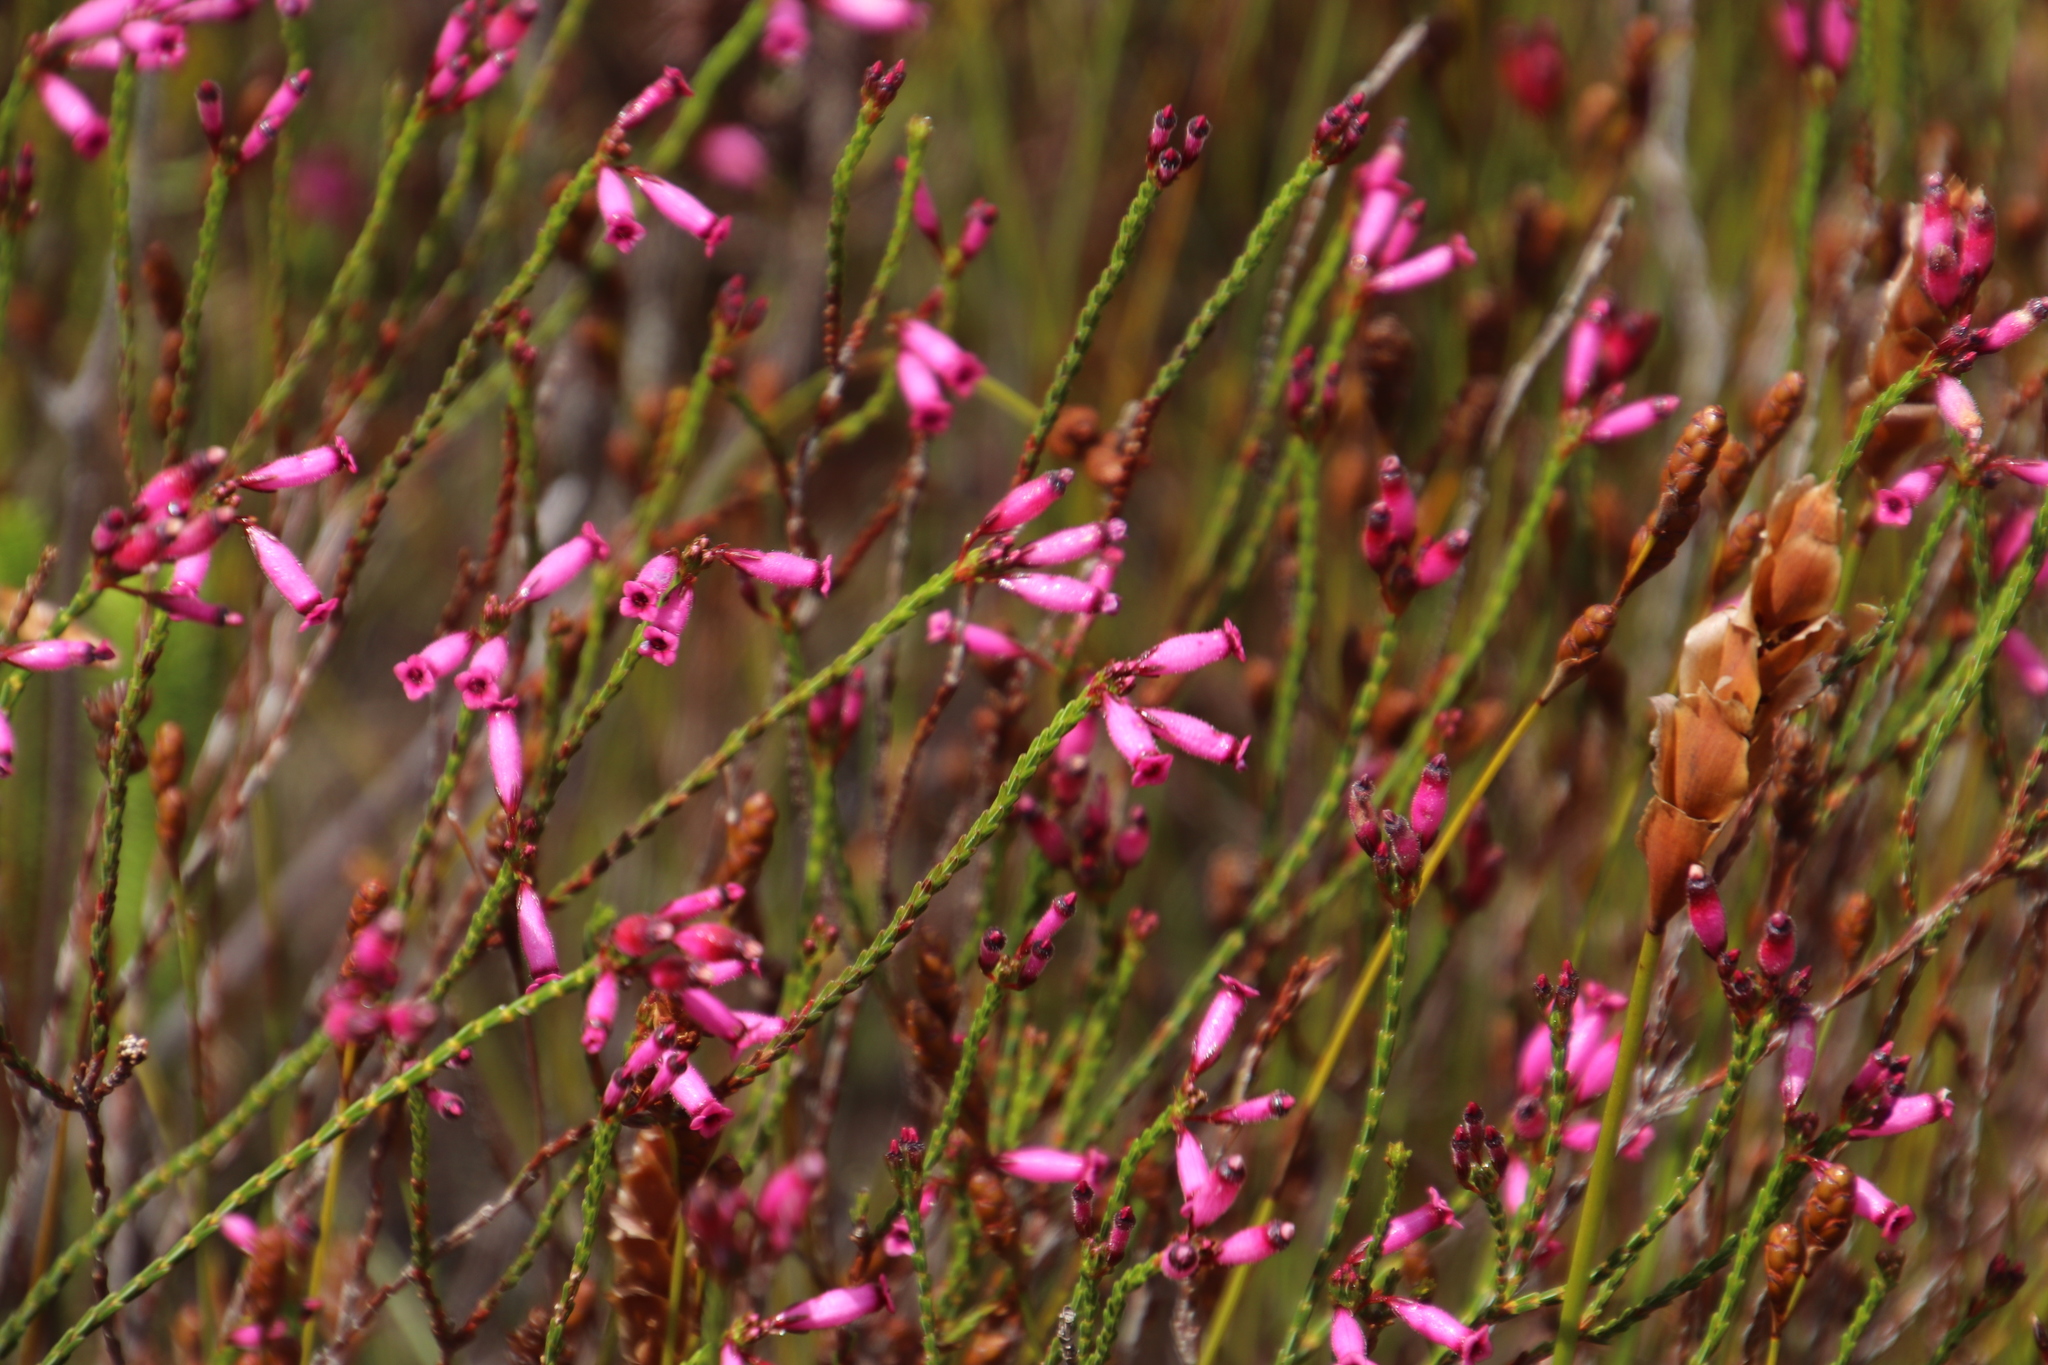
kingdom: Plantae
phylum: Tracheophyta
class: Magnoliopsida
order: Ericales
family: Ericaceae
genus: Erica
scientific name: Erica cristata
